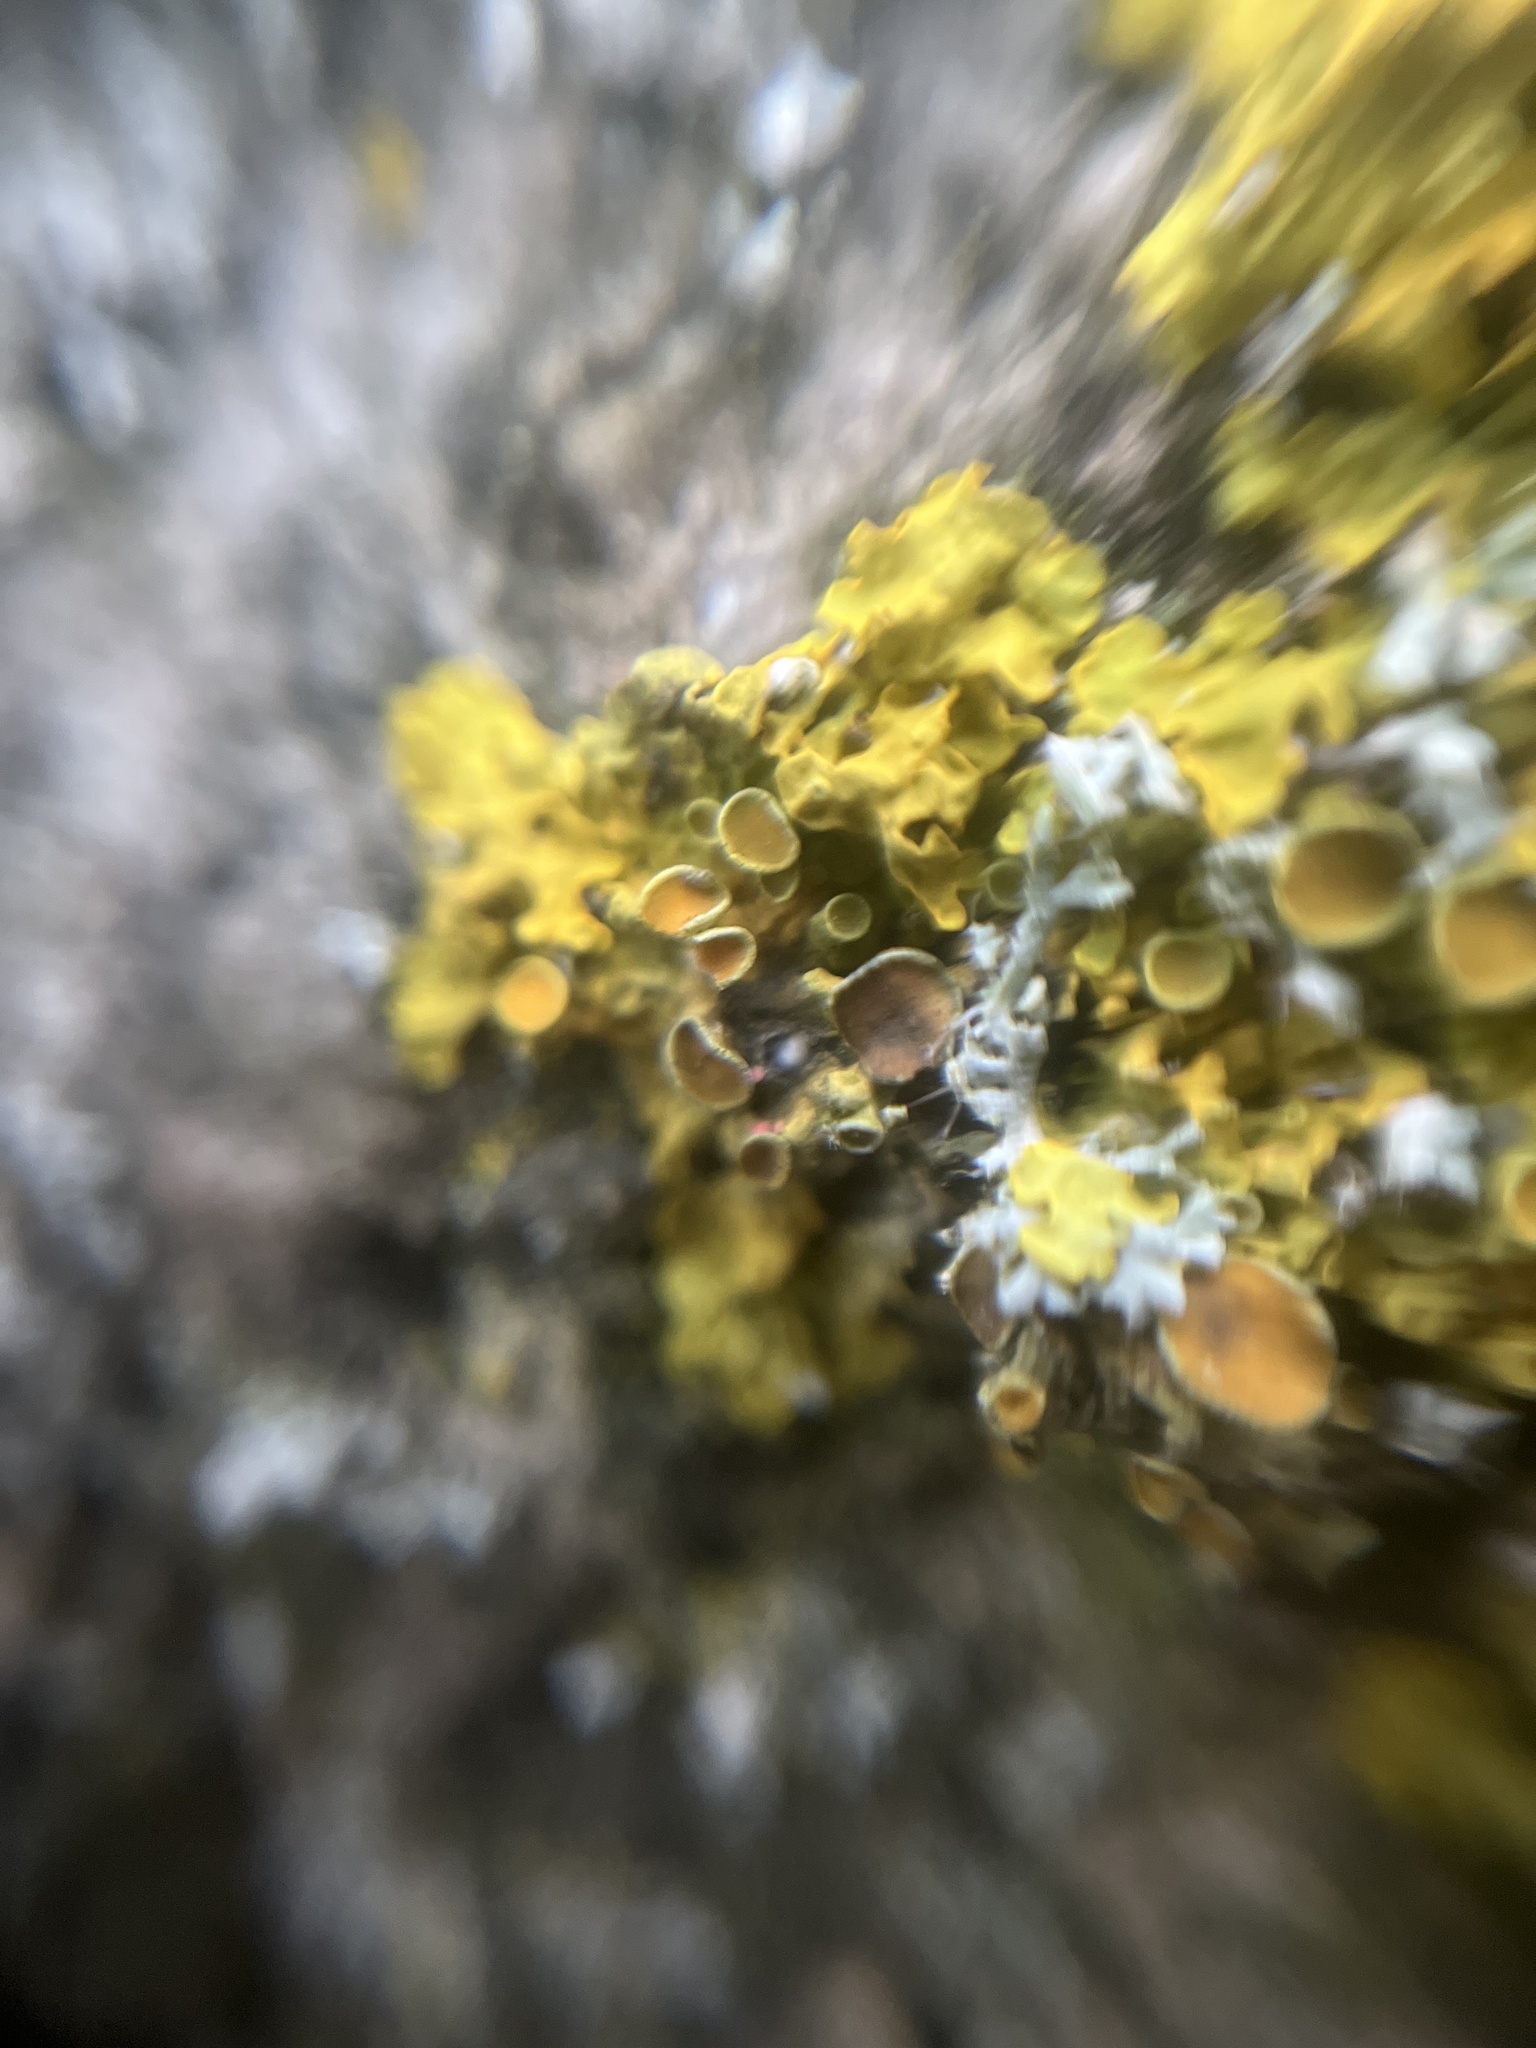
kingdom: Fungi
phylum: Ascomycota
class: Sordariomycetes
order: Hypocreales
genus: Illosporiopsis
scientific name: Illosporiopsis christiansenii
